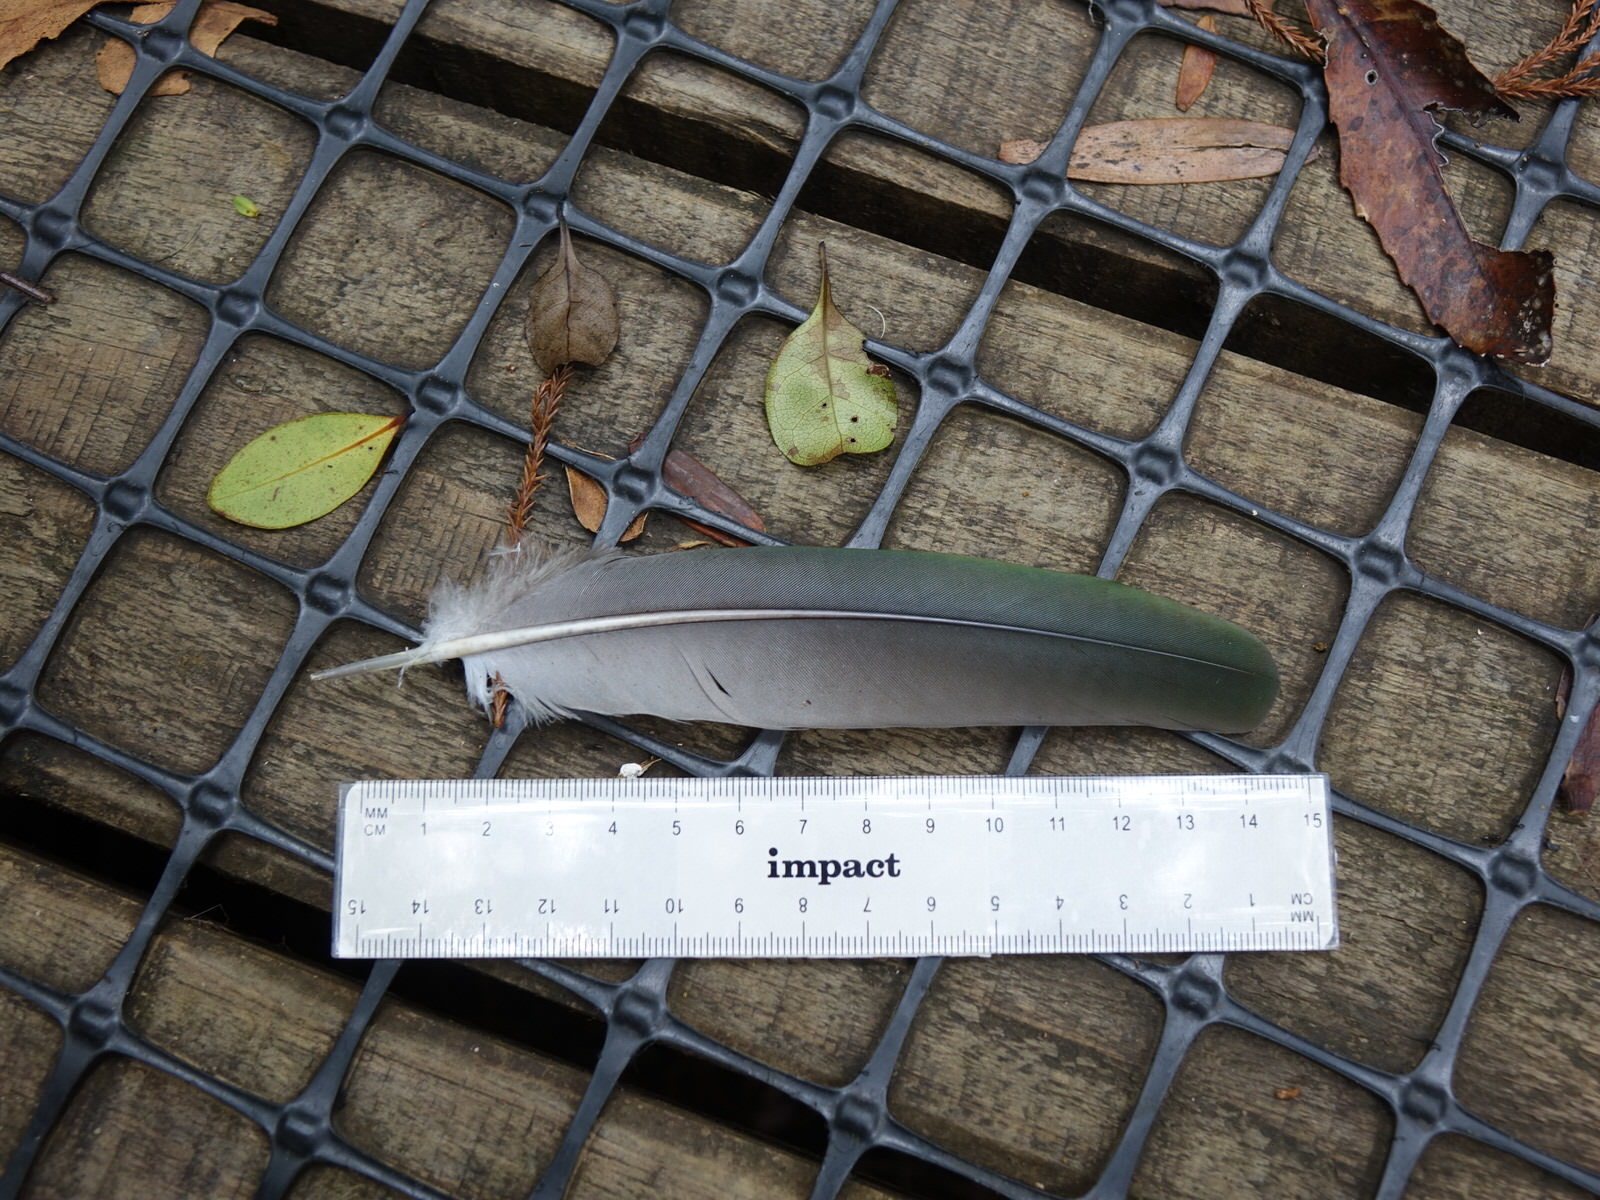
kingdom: Animalia
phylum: Chordata
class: Aves
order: Columbiformes
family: Columbidae
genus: Hemiphaga
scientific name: Hemiphaga novaeseelandiae
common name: New zealand pigeon
